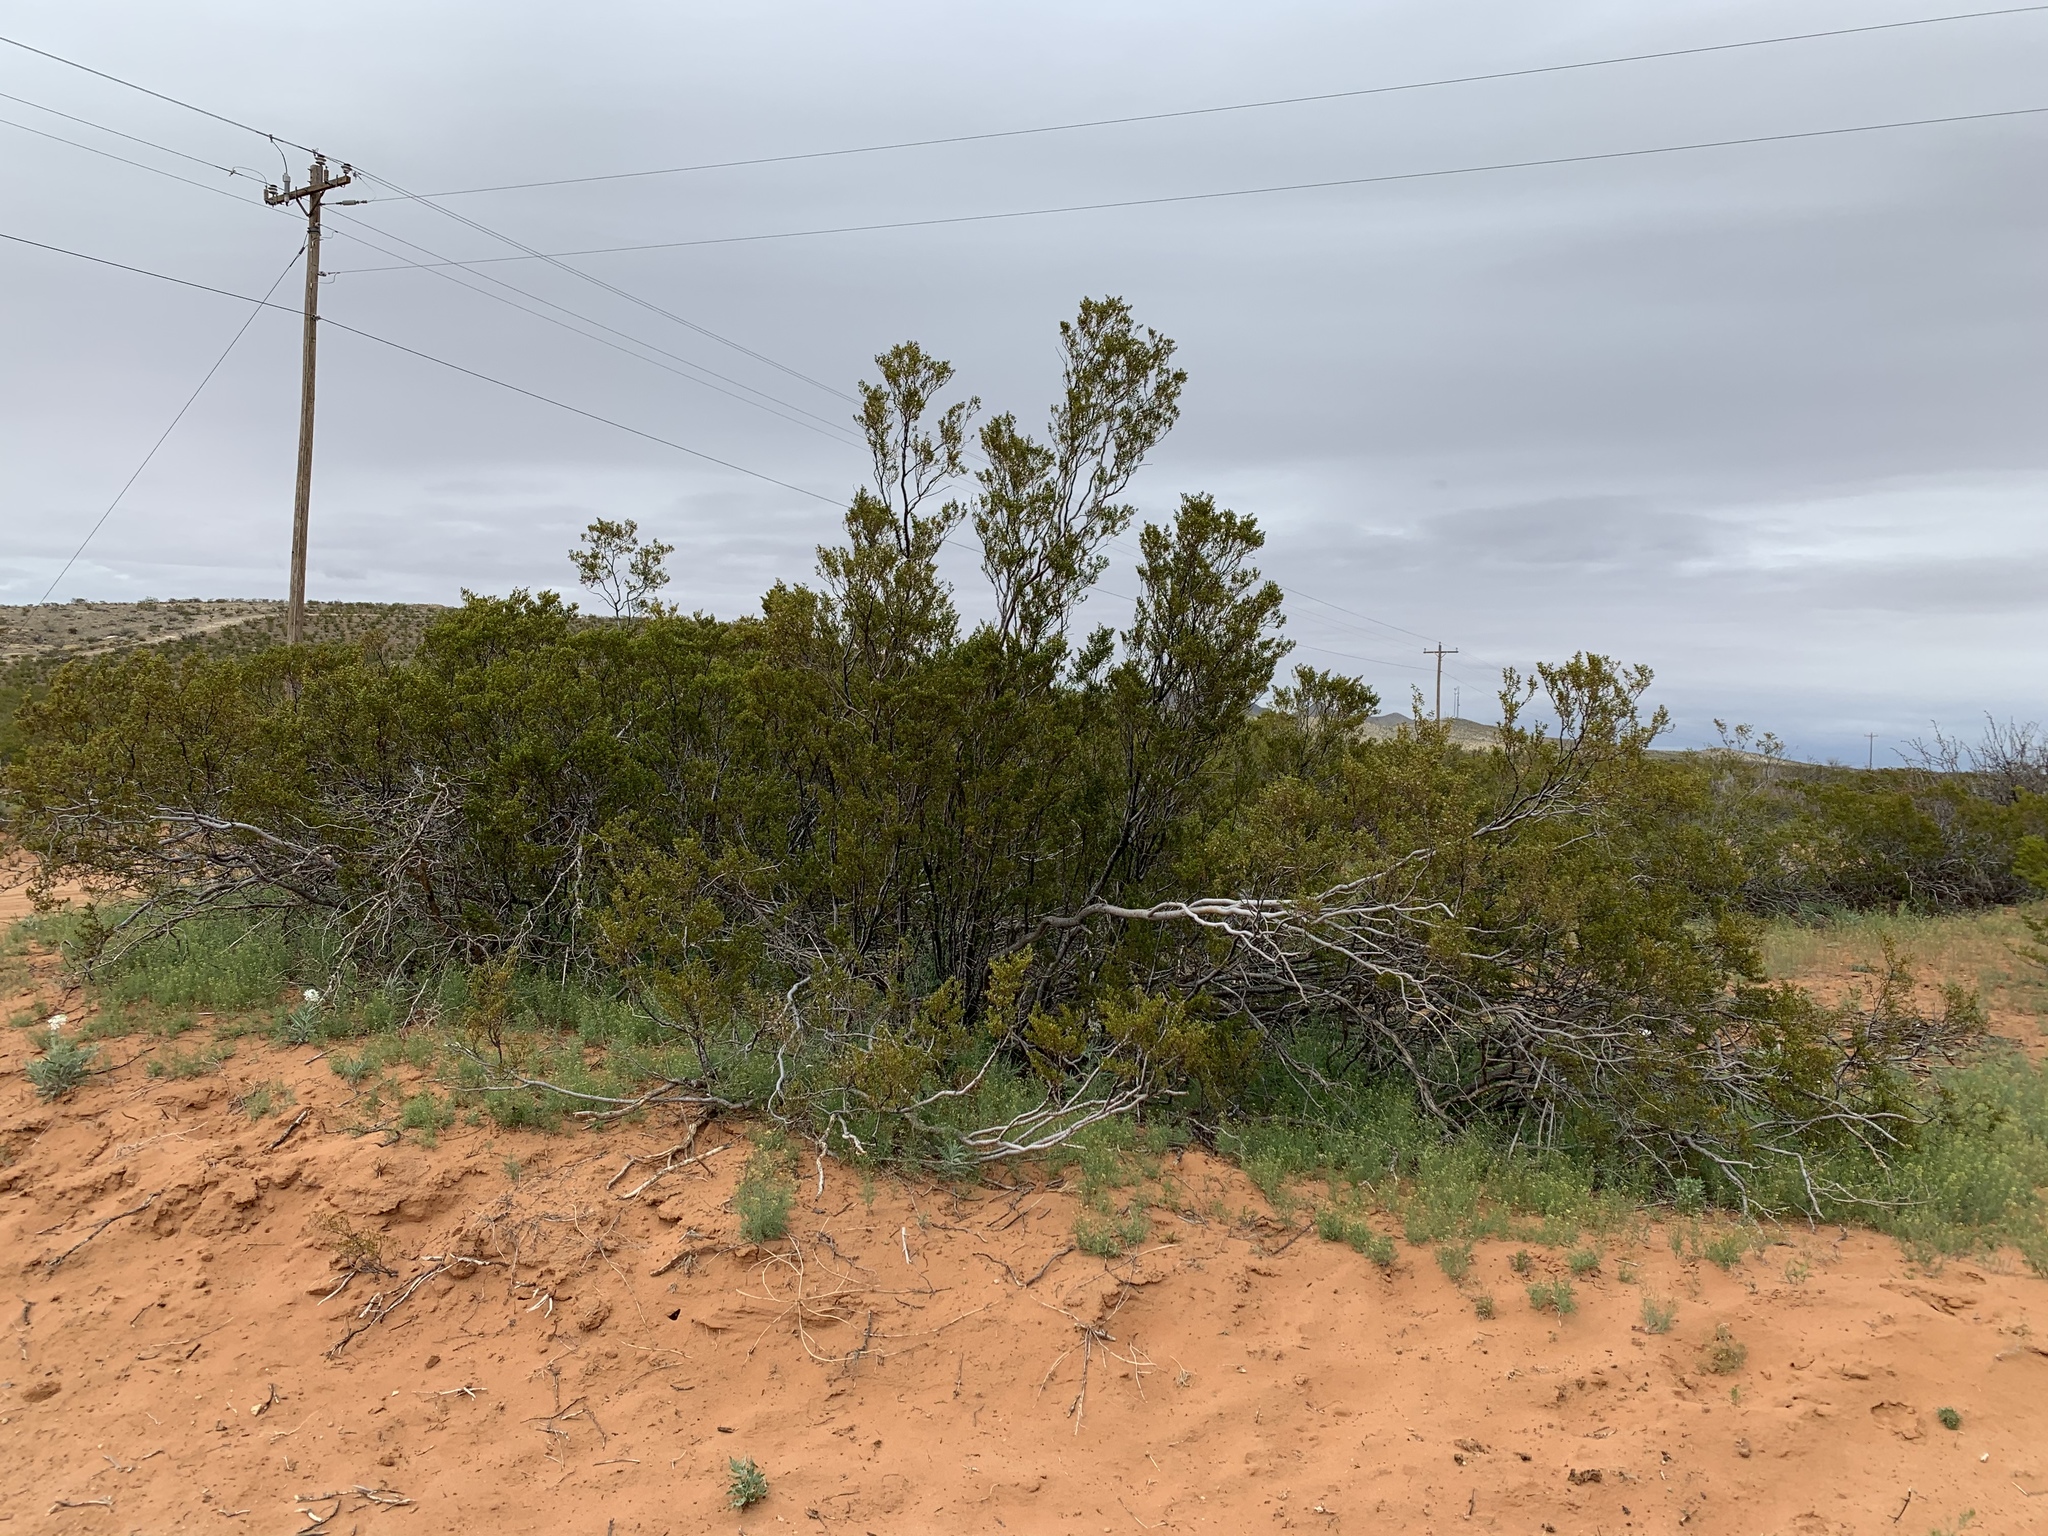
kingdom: Plantae
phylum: Tracheophyta
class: Magnoliopsida
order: Zygophyllales
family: Zygophyllaceae
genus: Larrea
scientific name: Larrea tridentata
